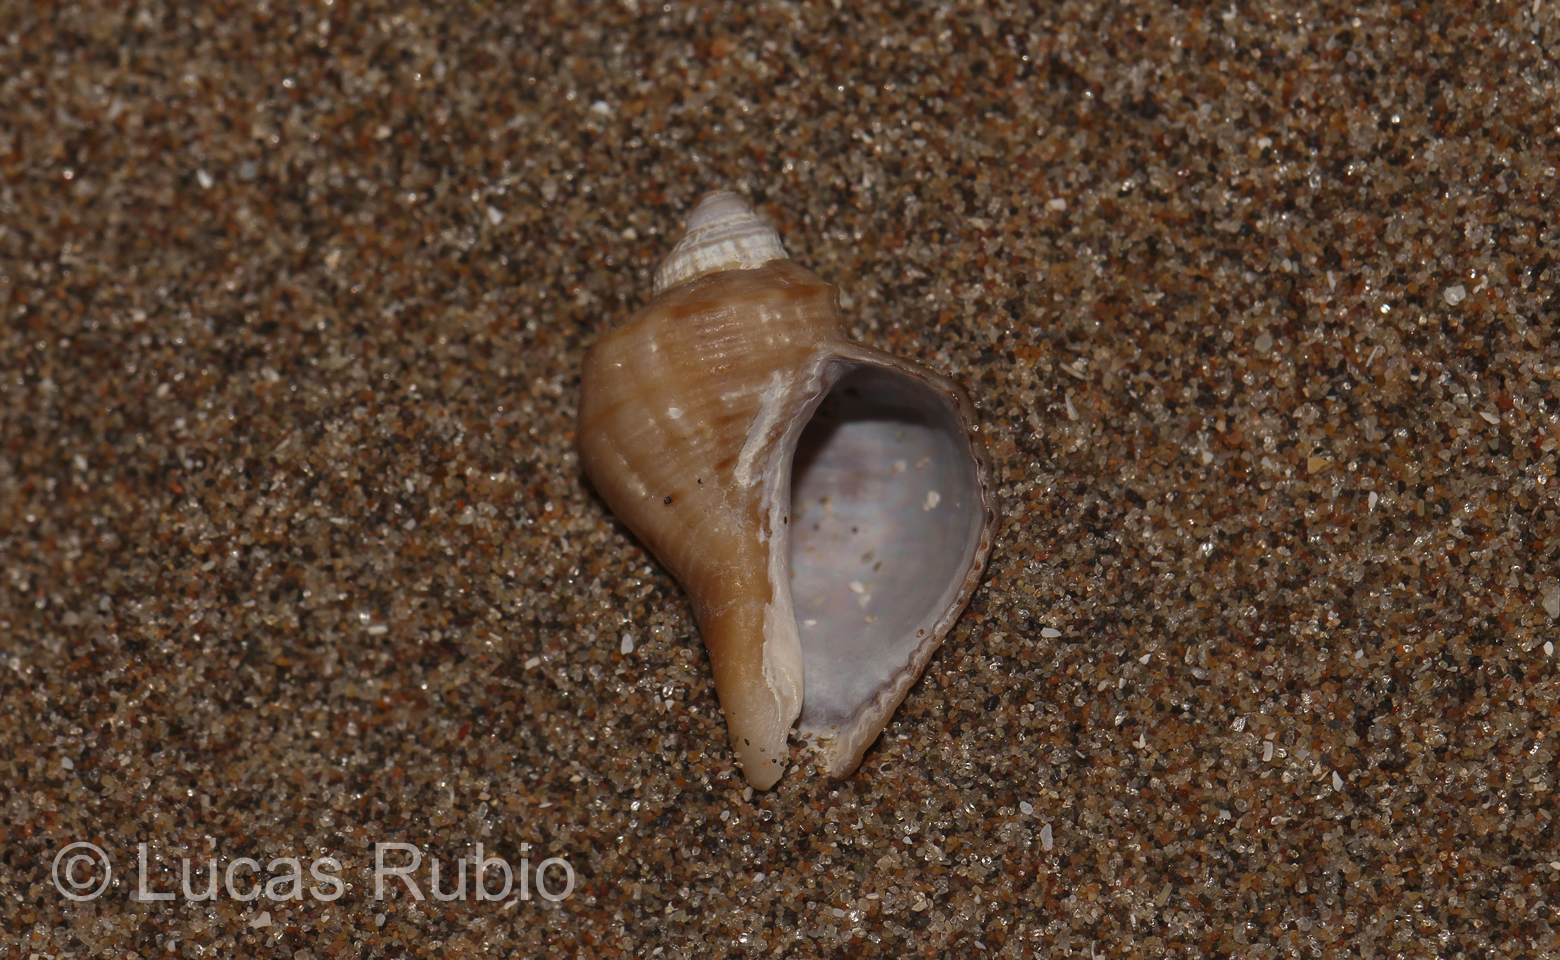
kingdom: Animalia
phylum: Mollusca
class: Gastropoda
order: Neogastropoda
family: Muricidae
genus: Rapana
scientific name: Rapana venosa
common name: Veined rapa whelk
